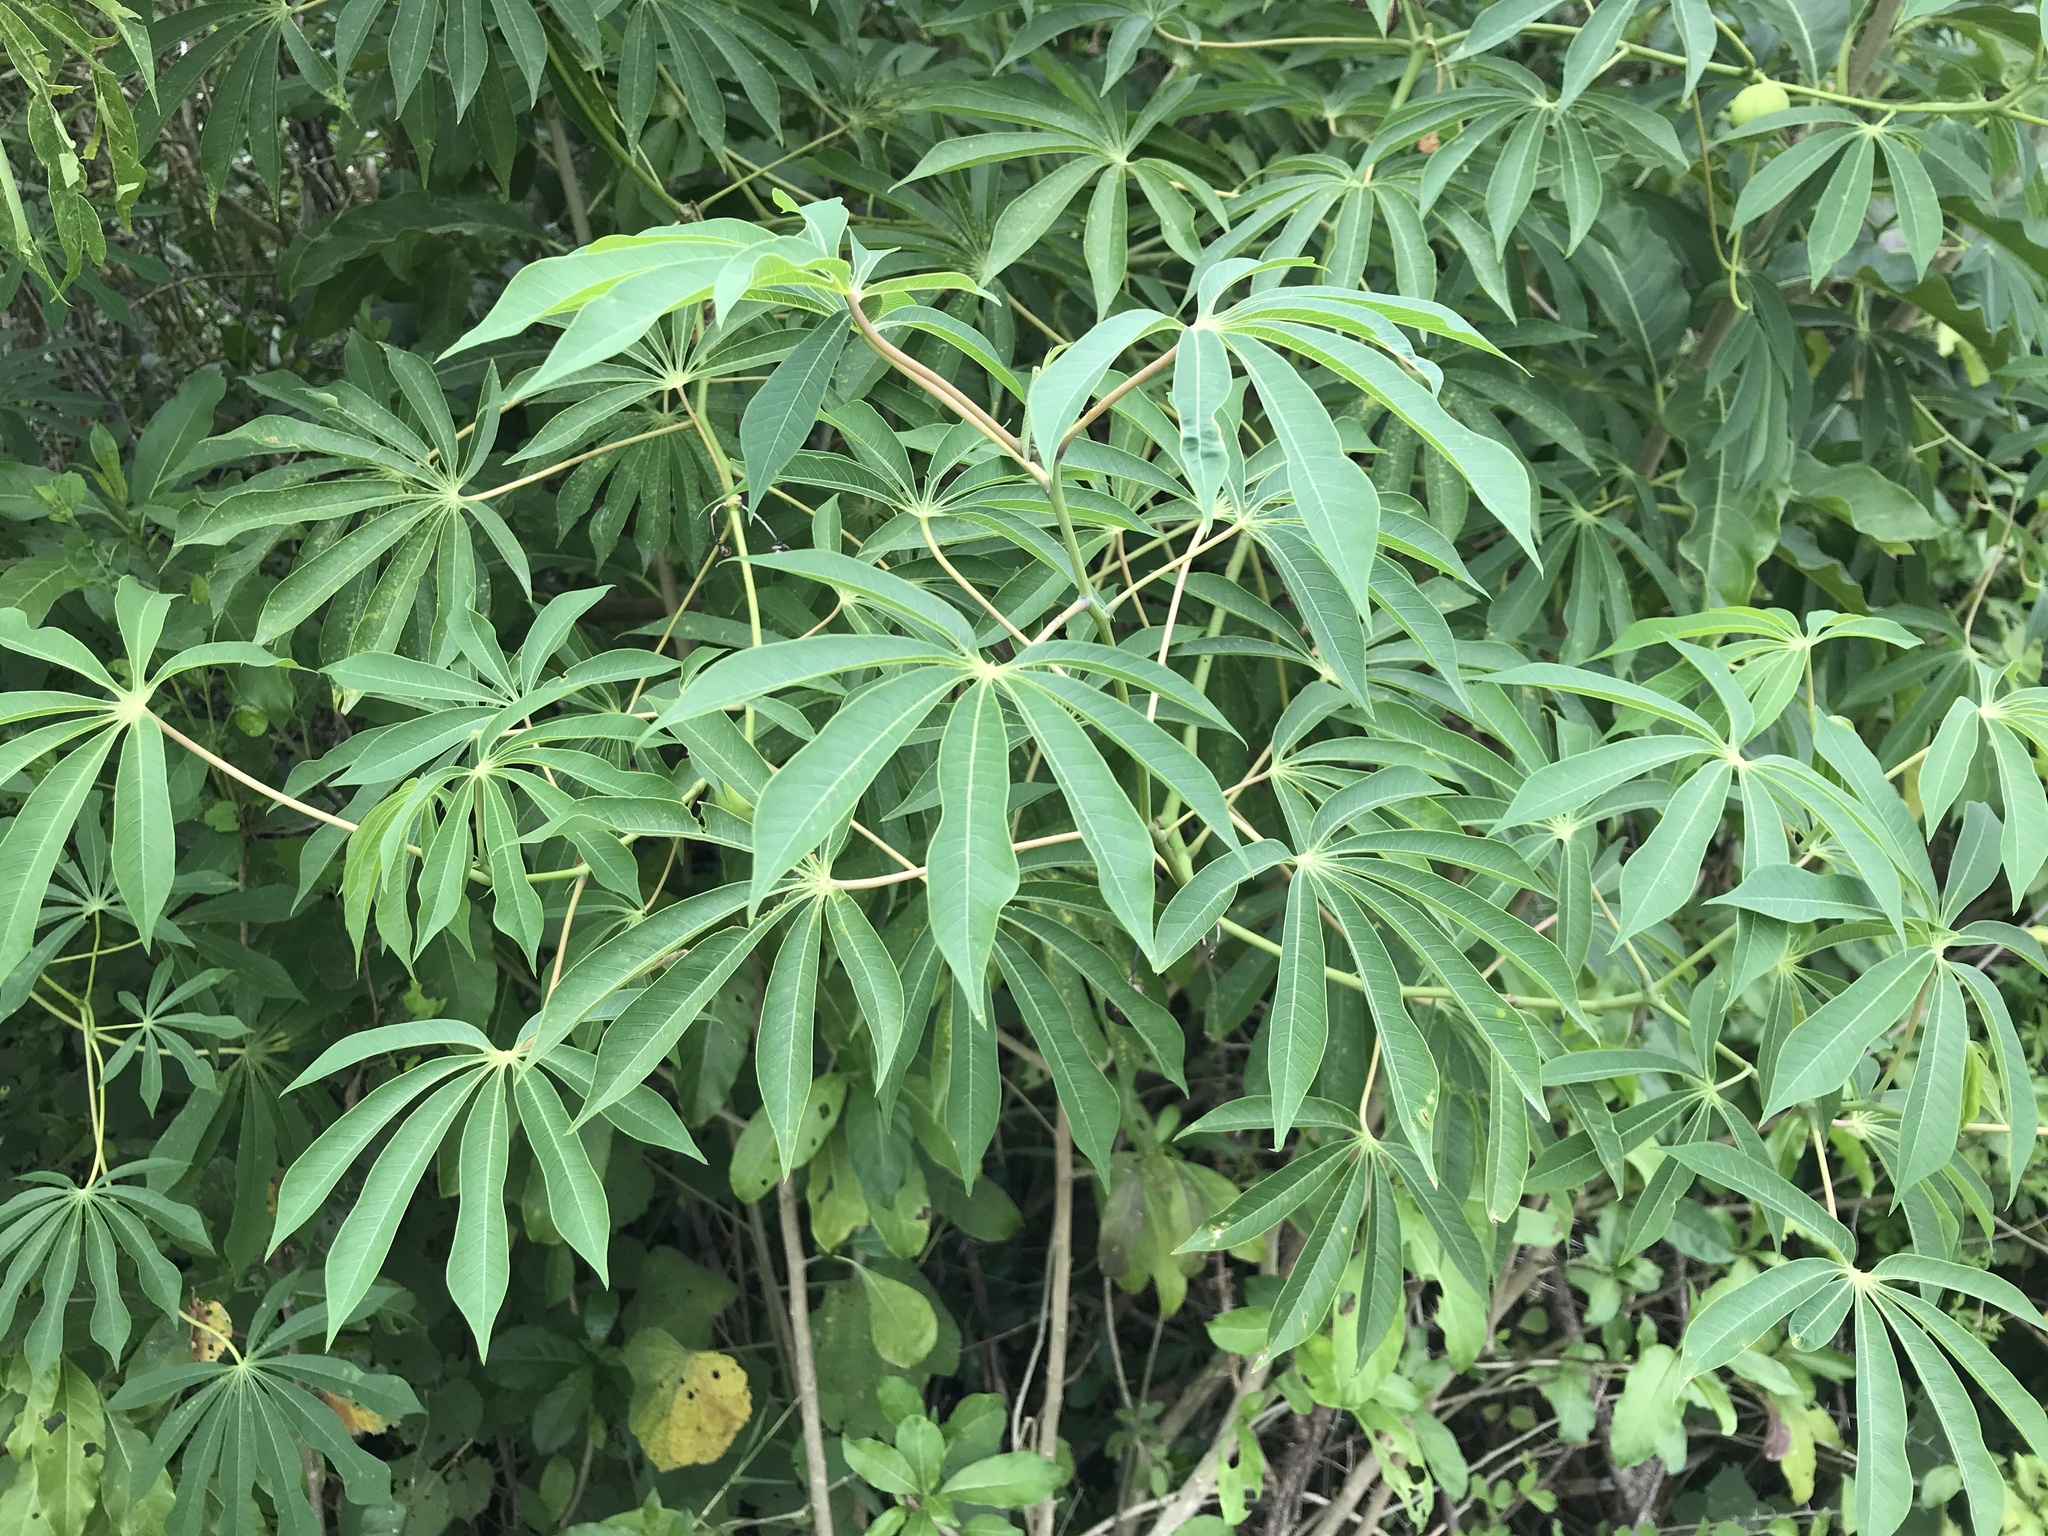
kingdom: Plantae
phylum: Tracheophyta
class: Magnoliopsida
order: Malpighiales
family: Euphorbiaceae
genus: Manihot
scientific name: Manihot grahamii
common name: Graham's manihot
